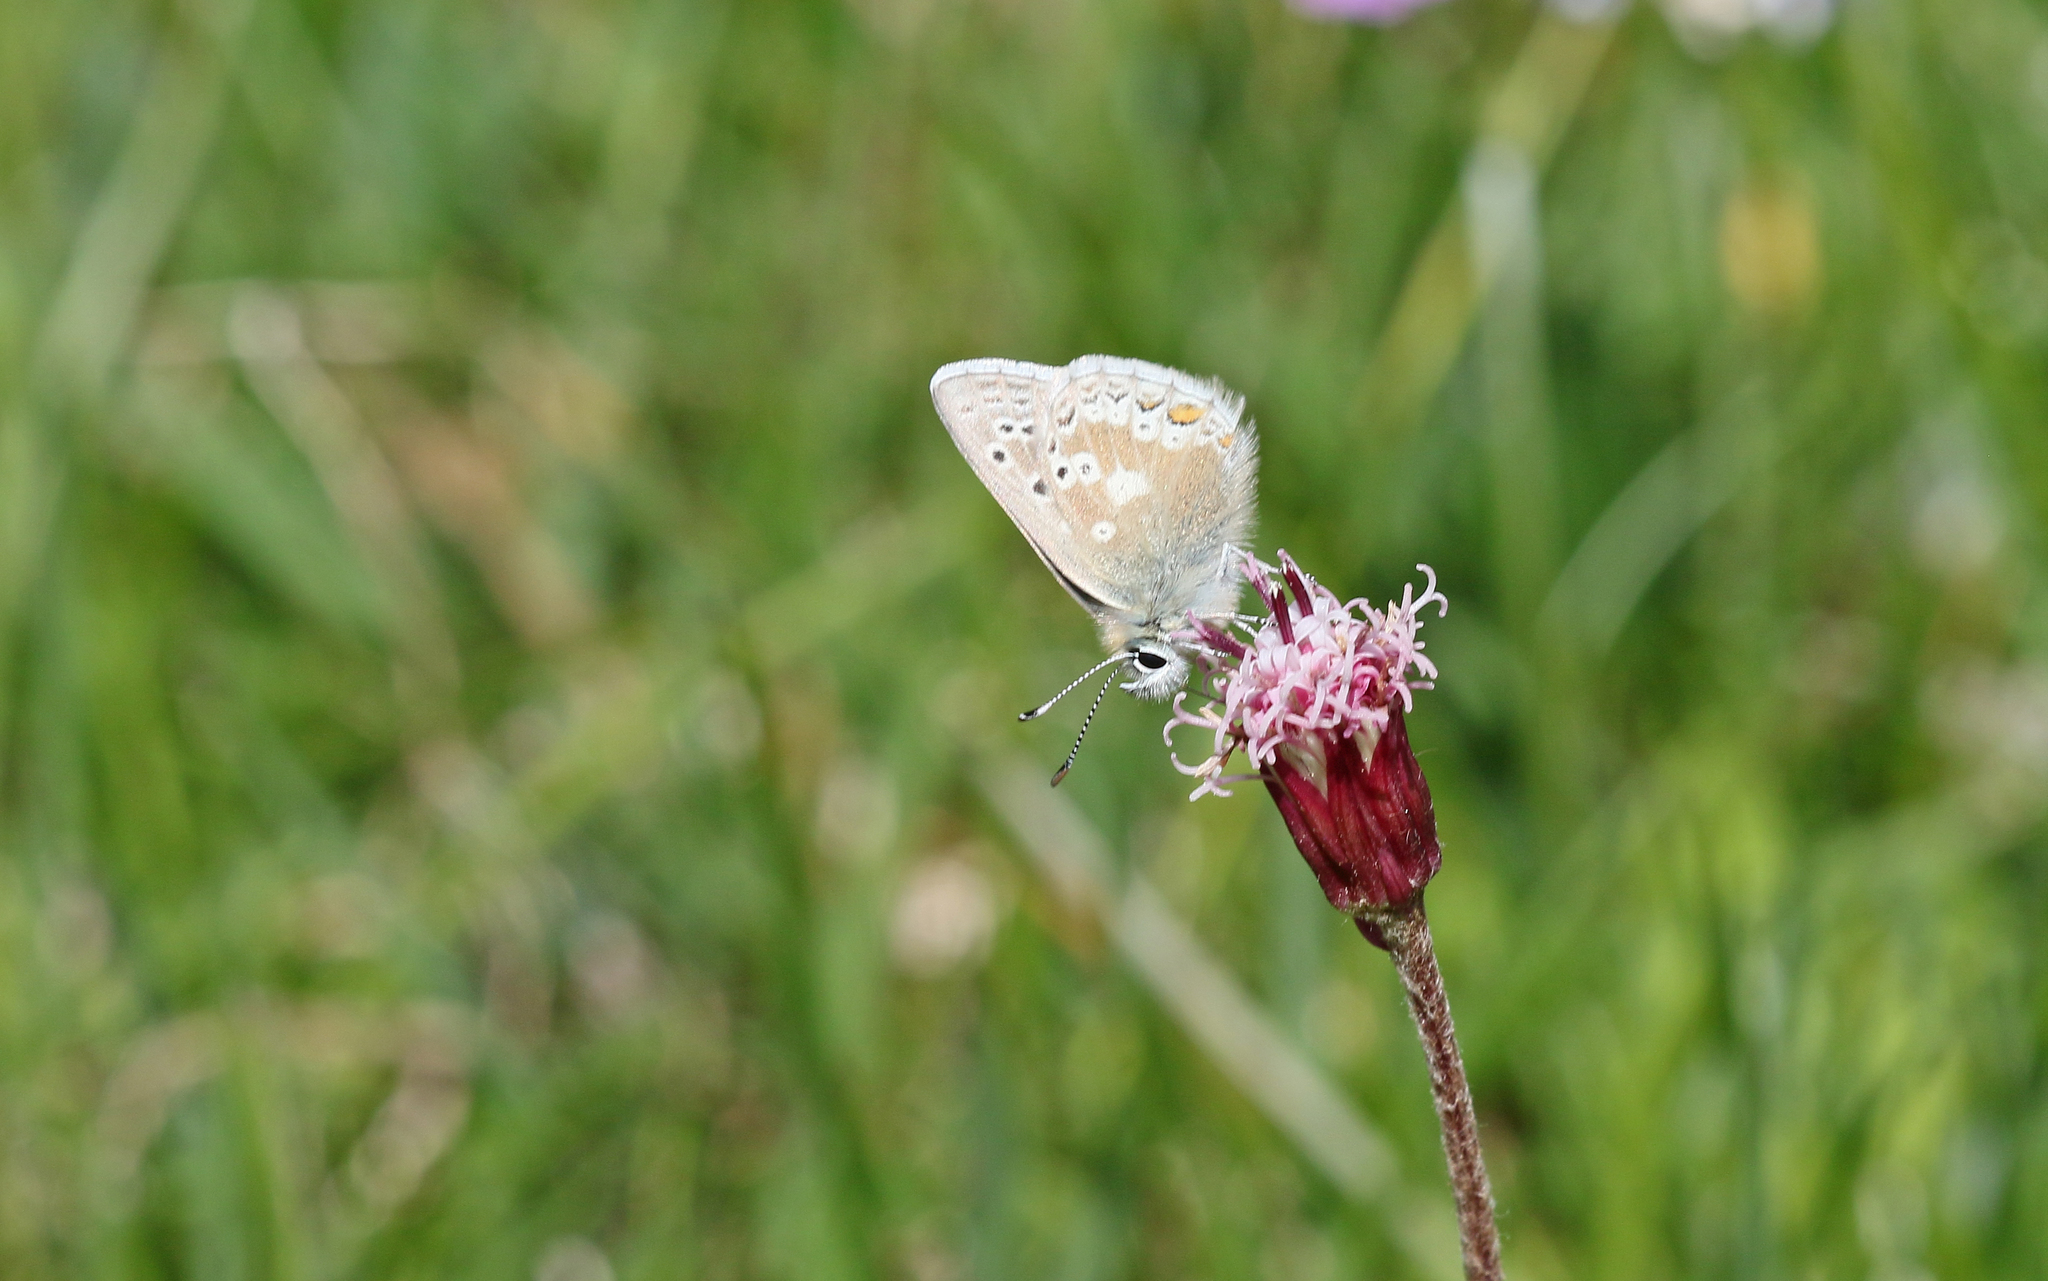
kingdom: Animalia
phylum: Arthropoda
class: Insecta
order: Lepidoptera
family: Lycaenidae
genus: Agriades
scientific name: Agriades glandon
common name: Glandon blue
